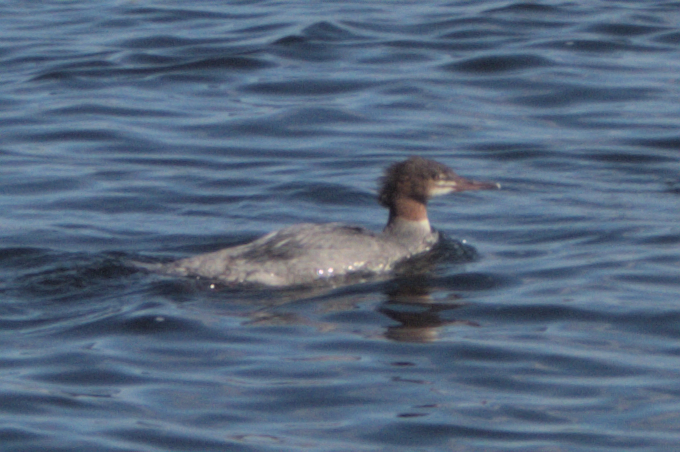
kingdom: Animalia
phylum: Chordata
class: Aves
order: Anseriformes
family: Anatidae
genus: Mergus
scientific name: Mergus merganser
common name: Common merganser
